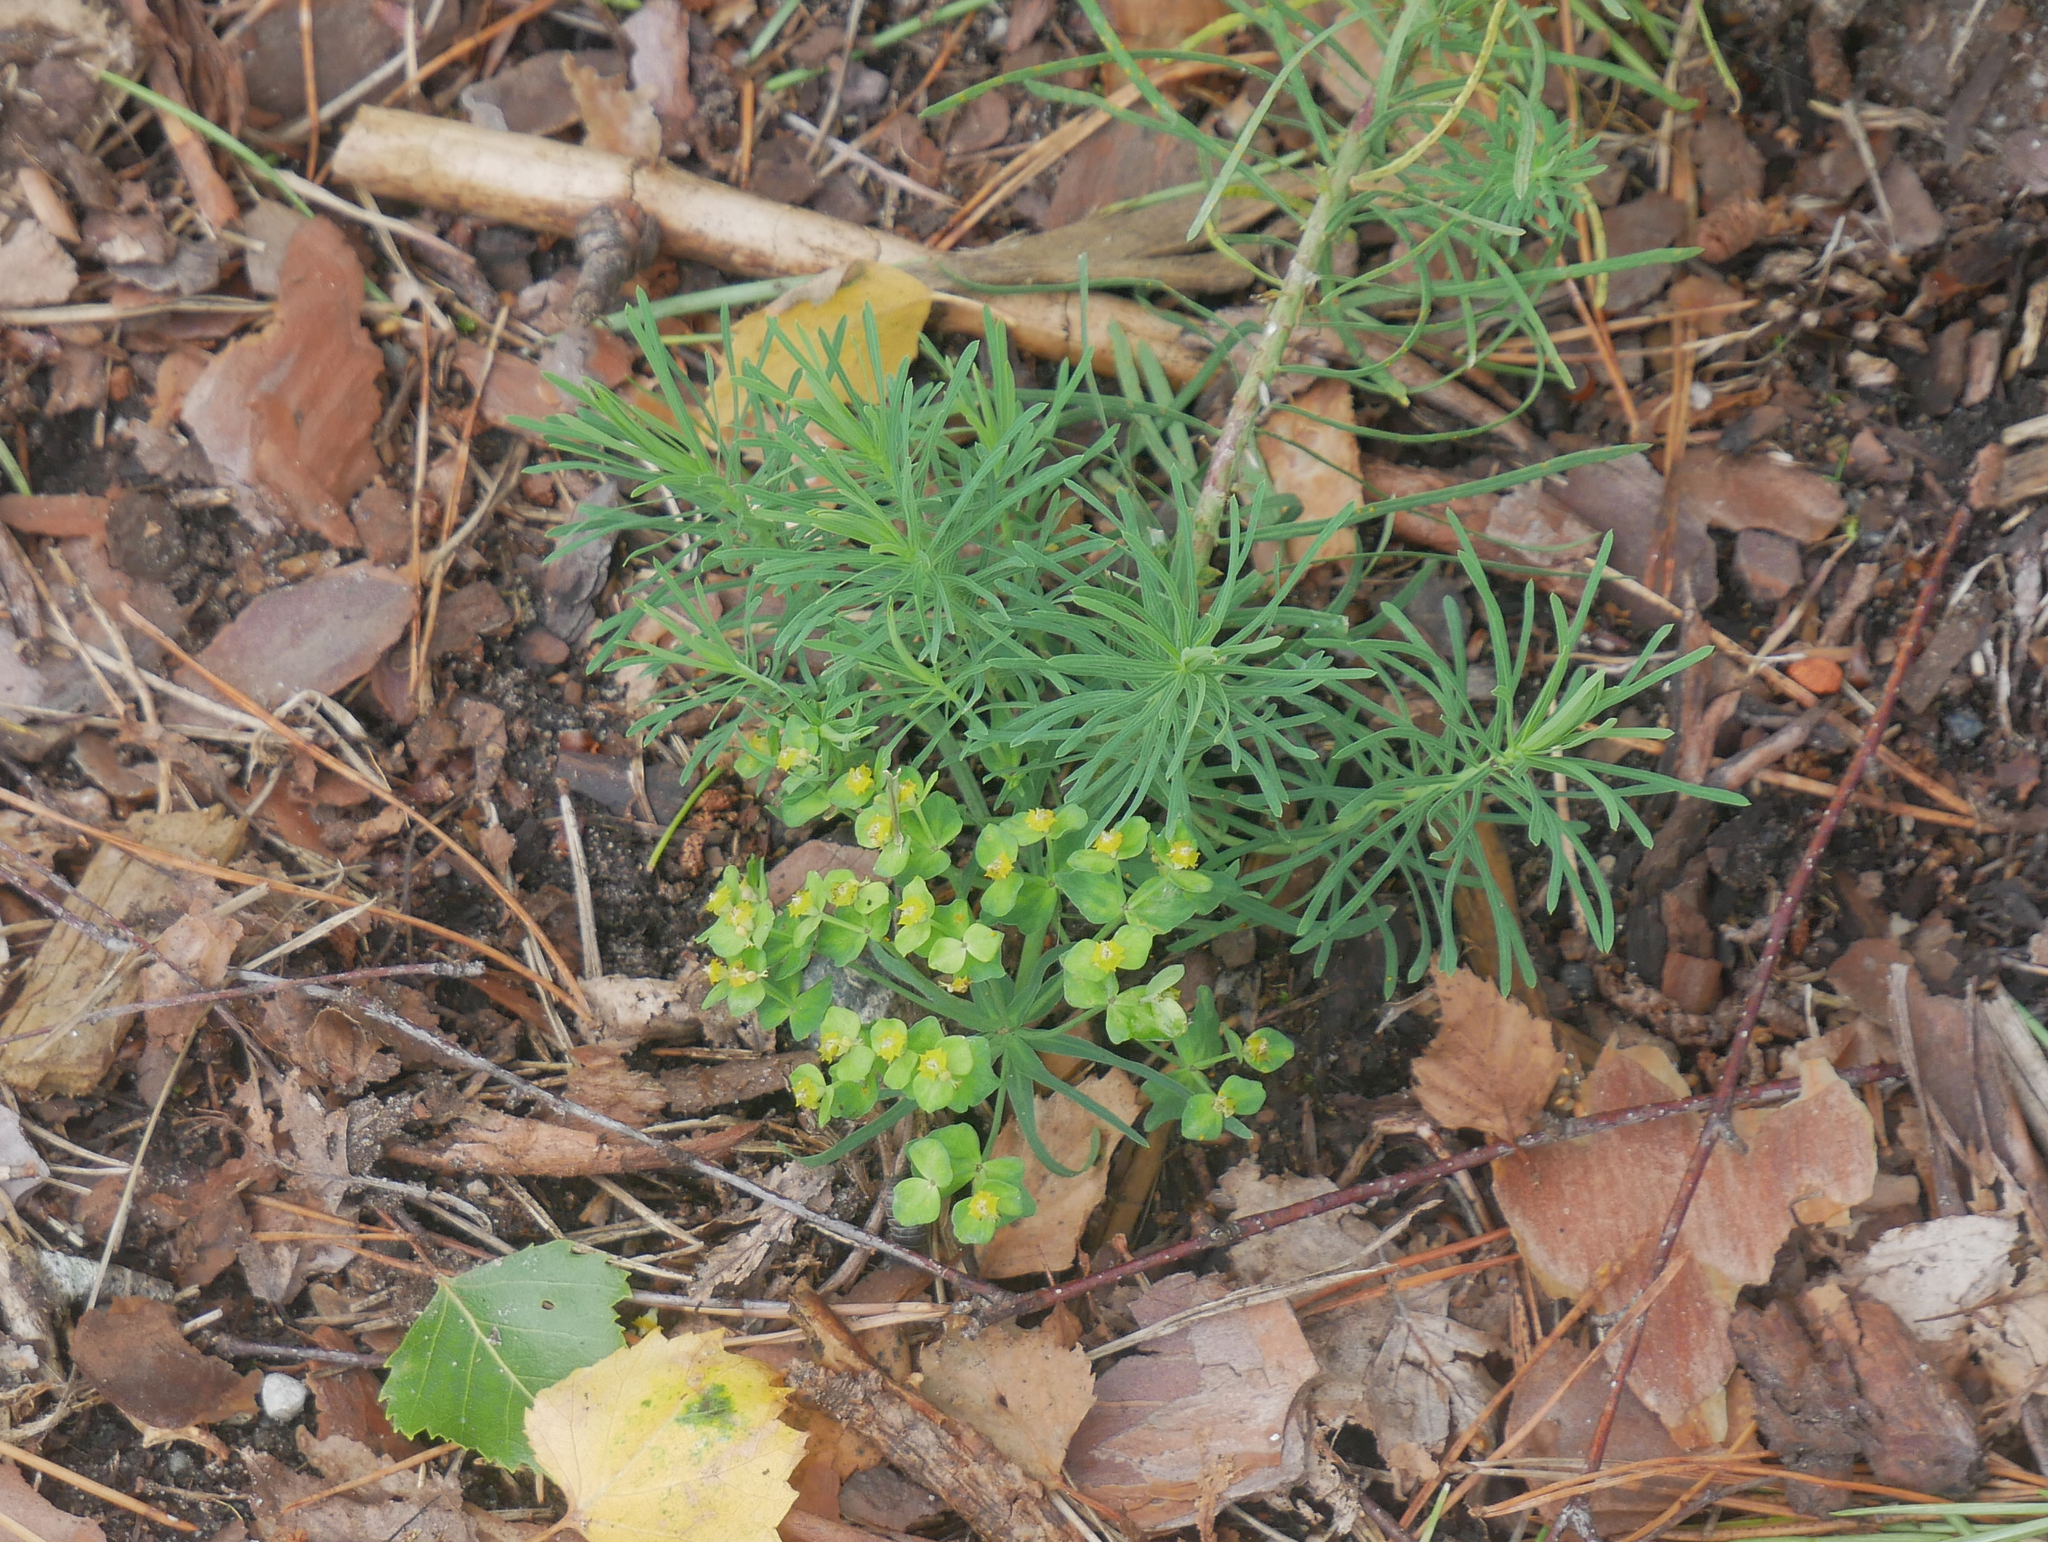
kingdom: Plantae
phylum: Tracheophyta
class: Magnoliopsida
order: Malpighiales
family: Euphorbiaceae
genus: Euphorbia
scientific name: Euphorbia cyparissias
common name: Cypress spurge
